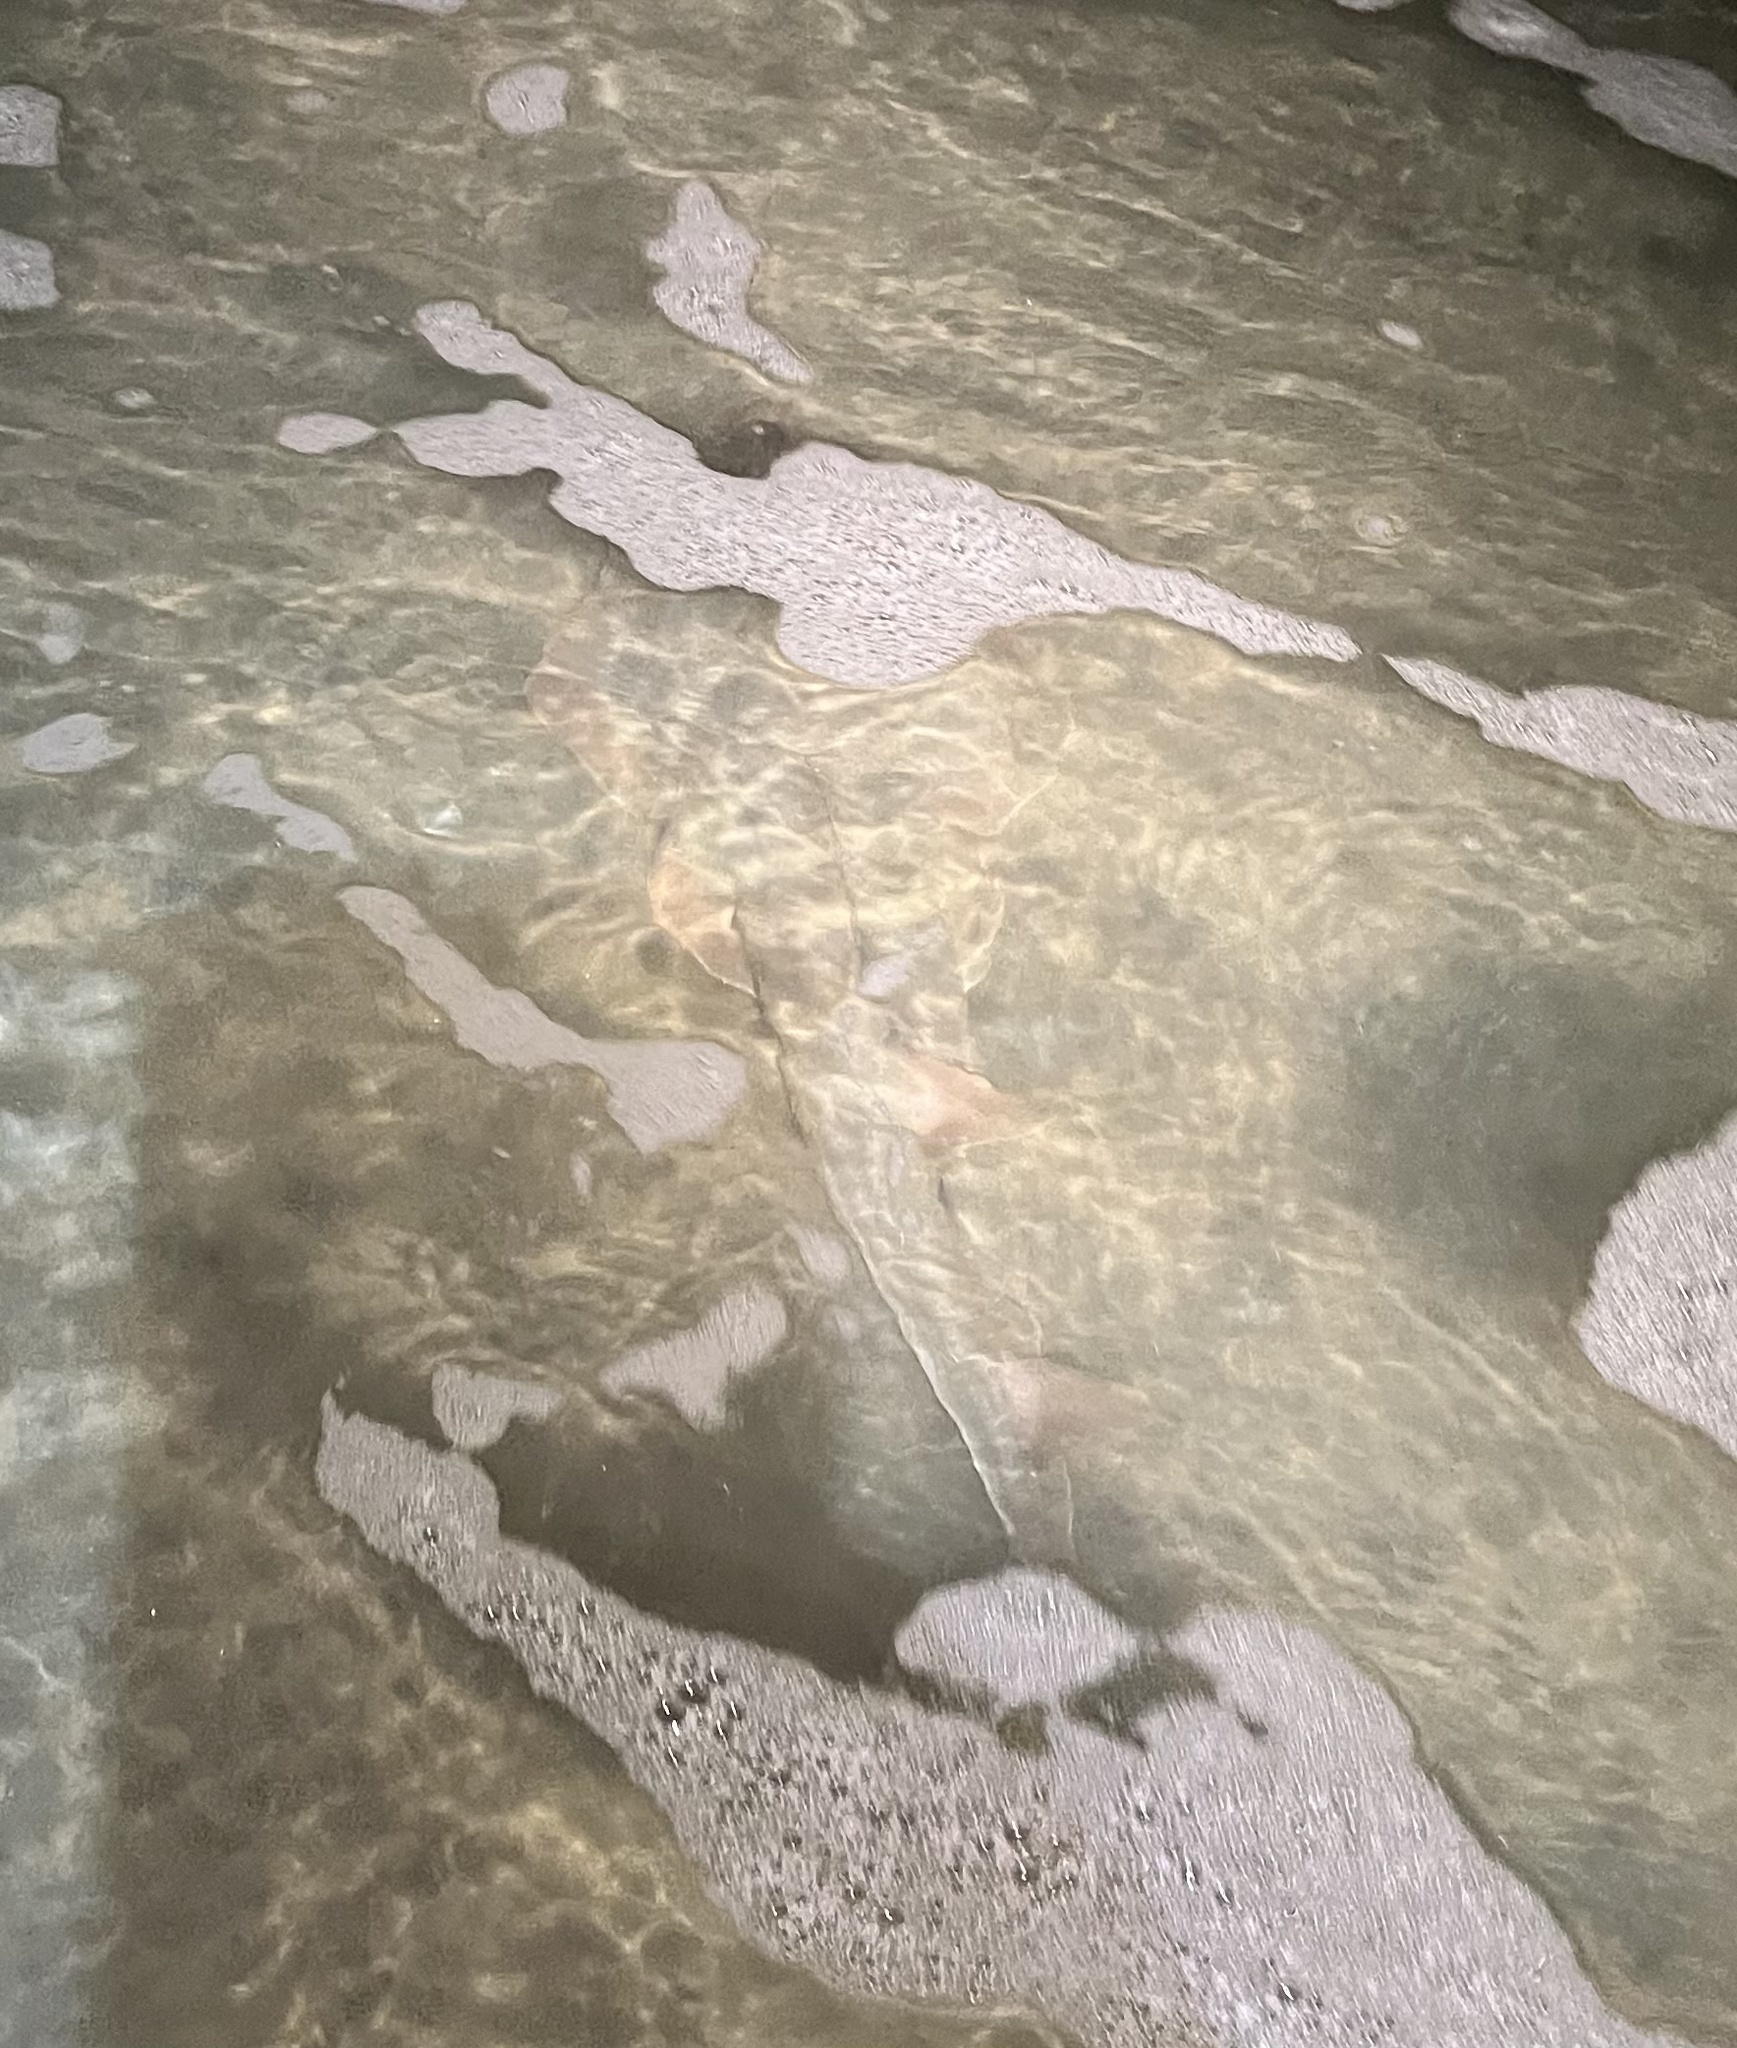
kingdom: Animalia
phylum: Chordata
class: Elasmobranchii
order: Rhinopristiformes
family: Rhinobatidae
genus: Pseudobatos
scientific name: Pseudobatos productus
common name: Shovelnose guitarfish
